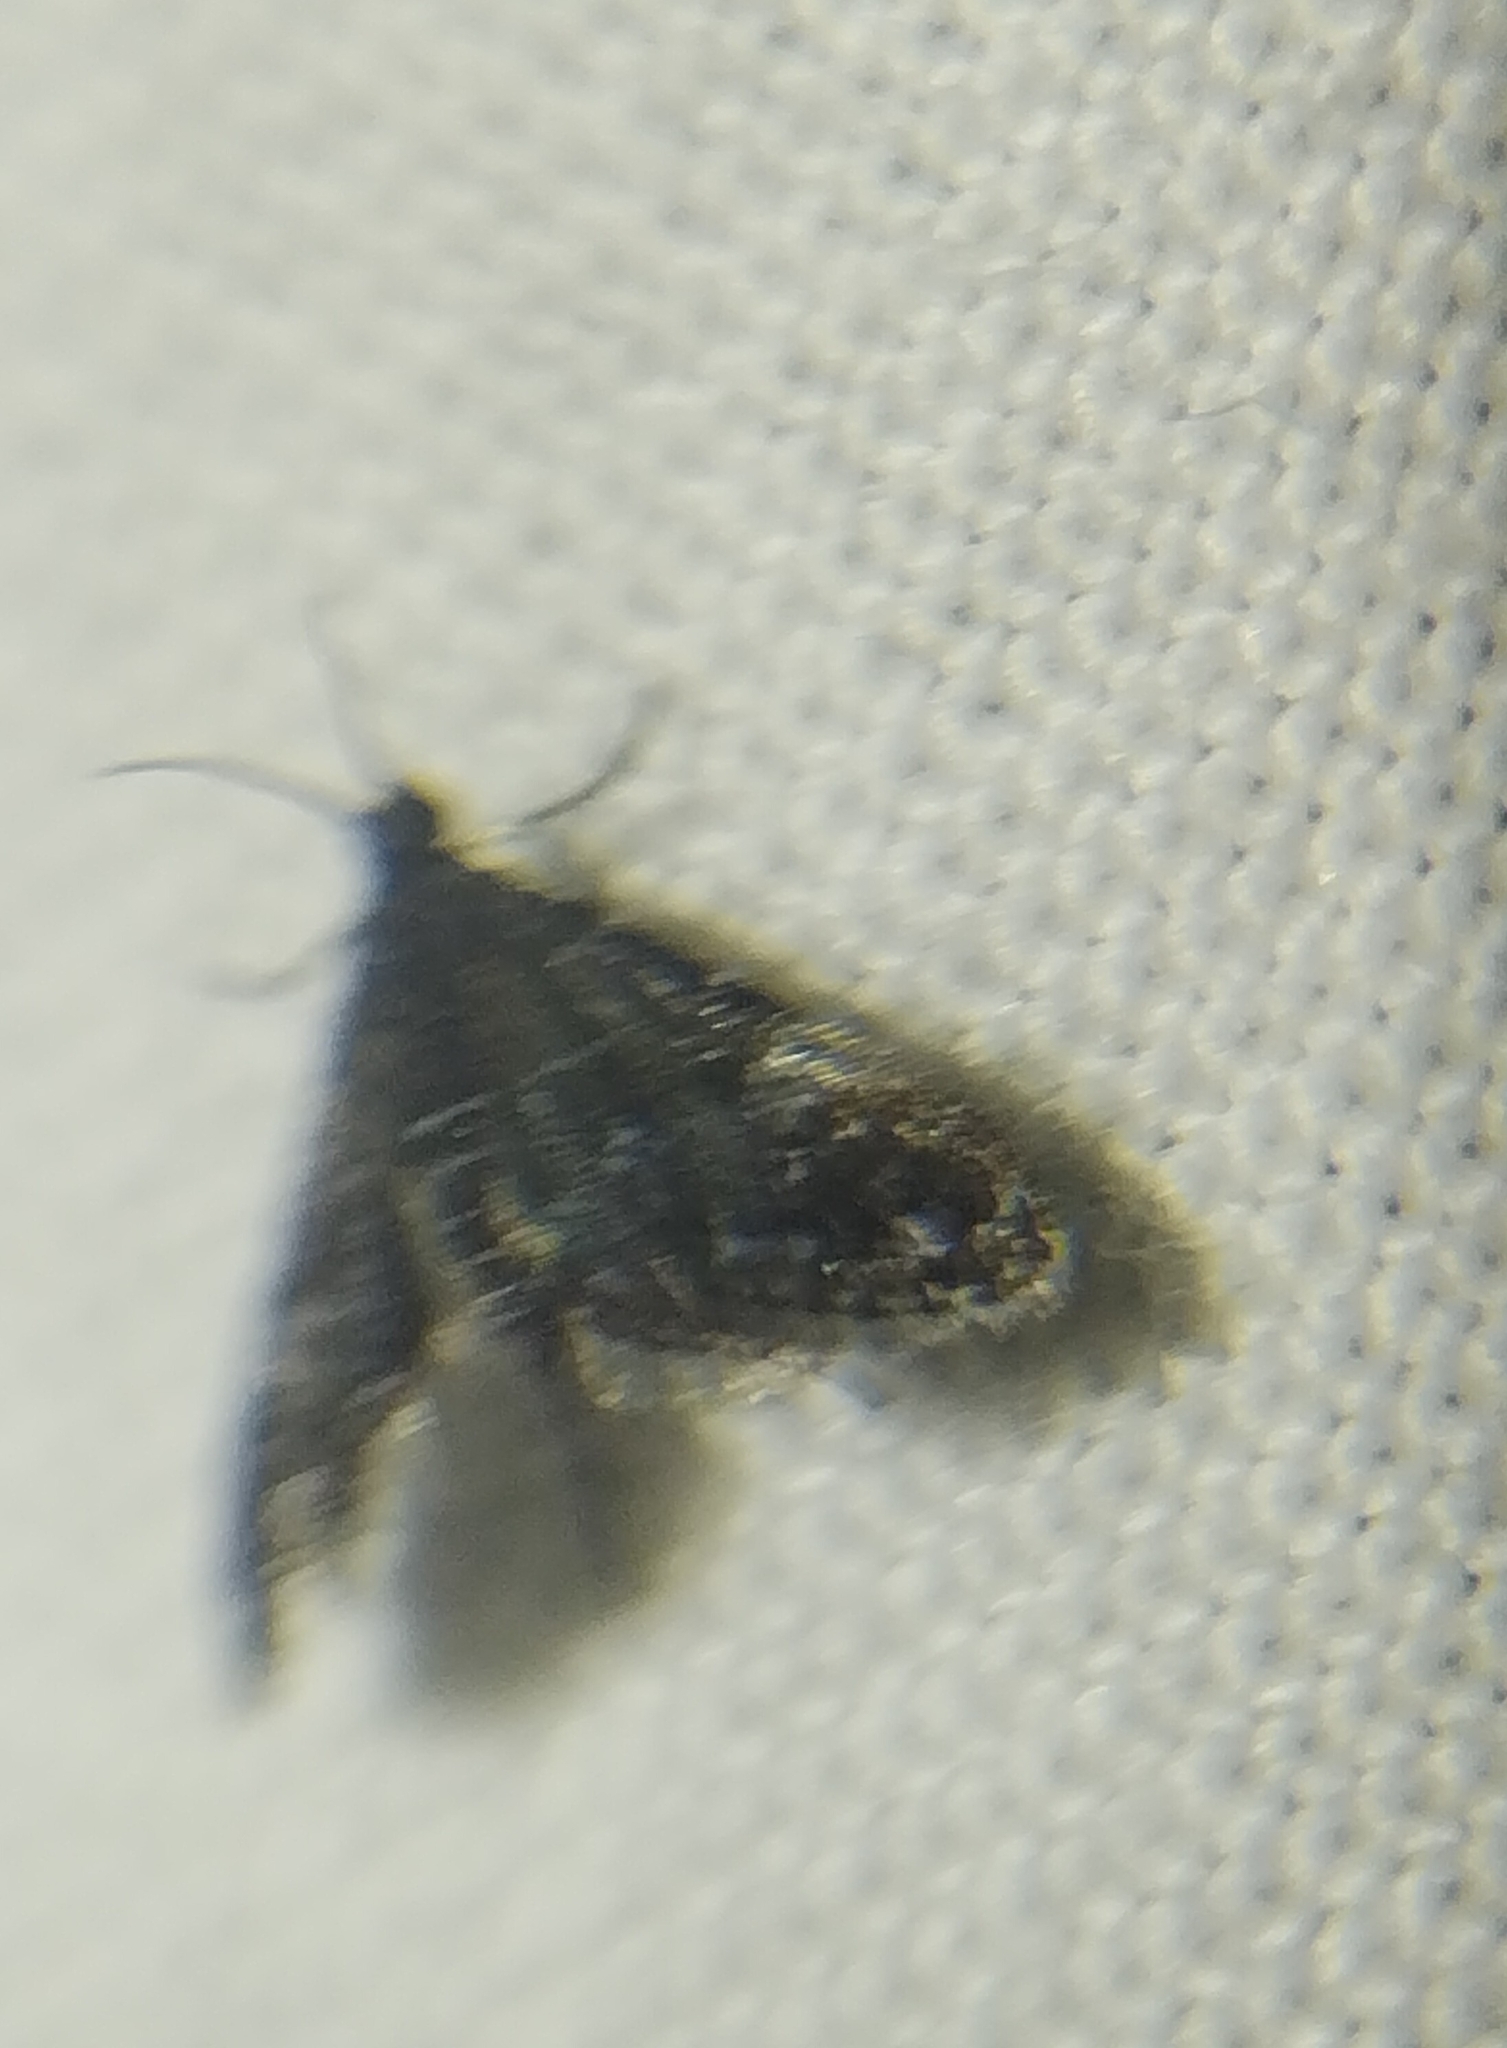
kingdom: Animalia
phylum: Arthropoda
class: Insecta
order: Lepidoptera
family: Crambidae
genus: Elophila
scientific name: Elophila tinealis
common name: Black duckweed moth
